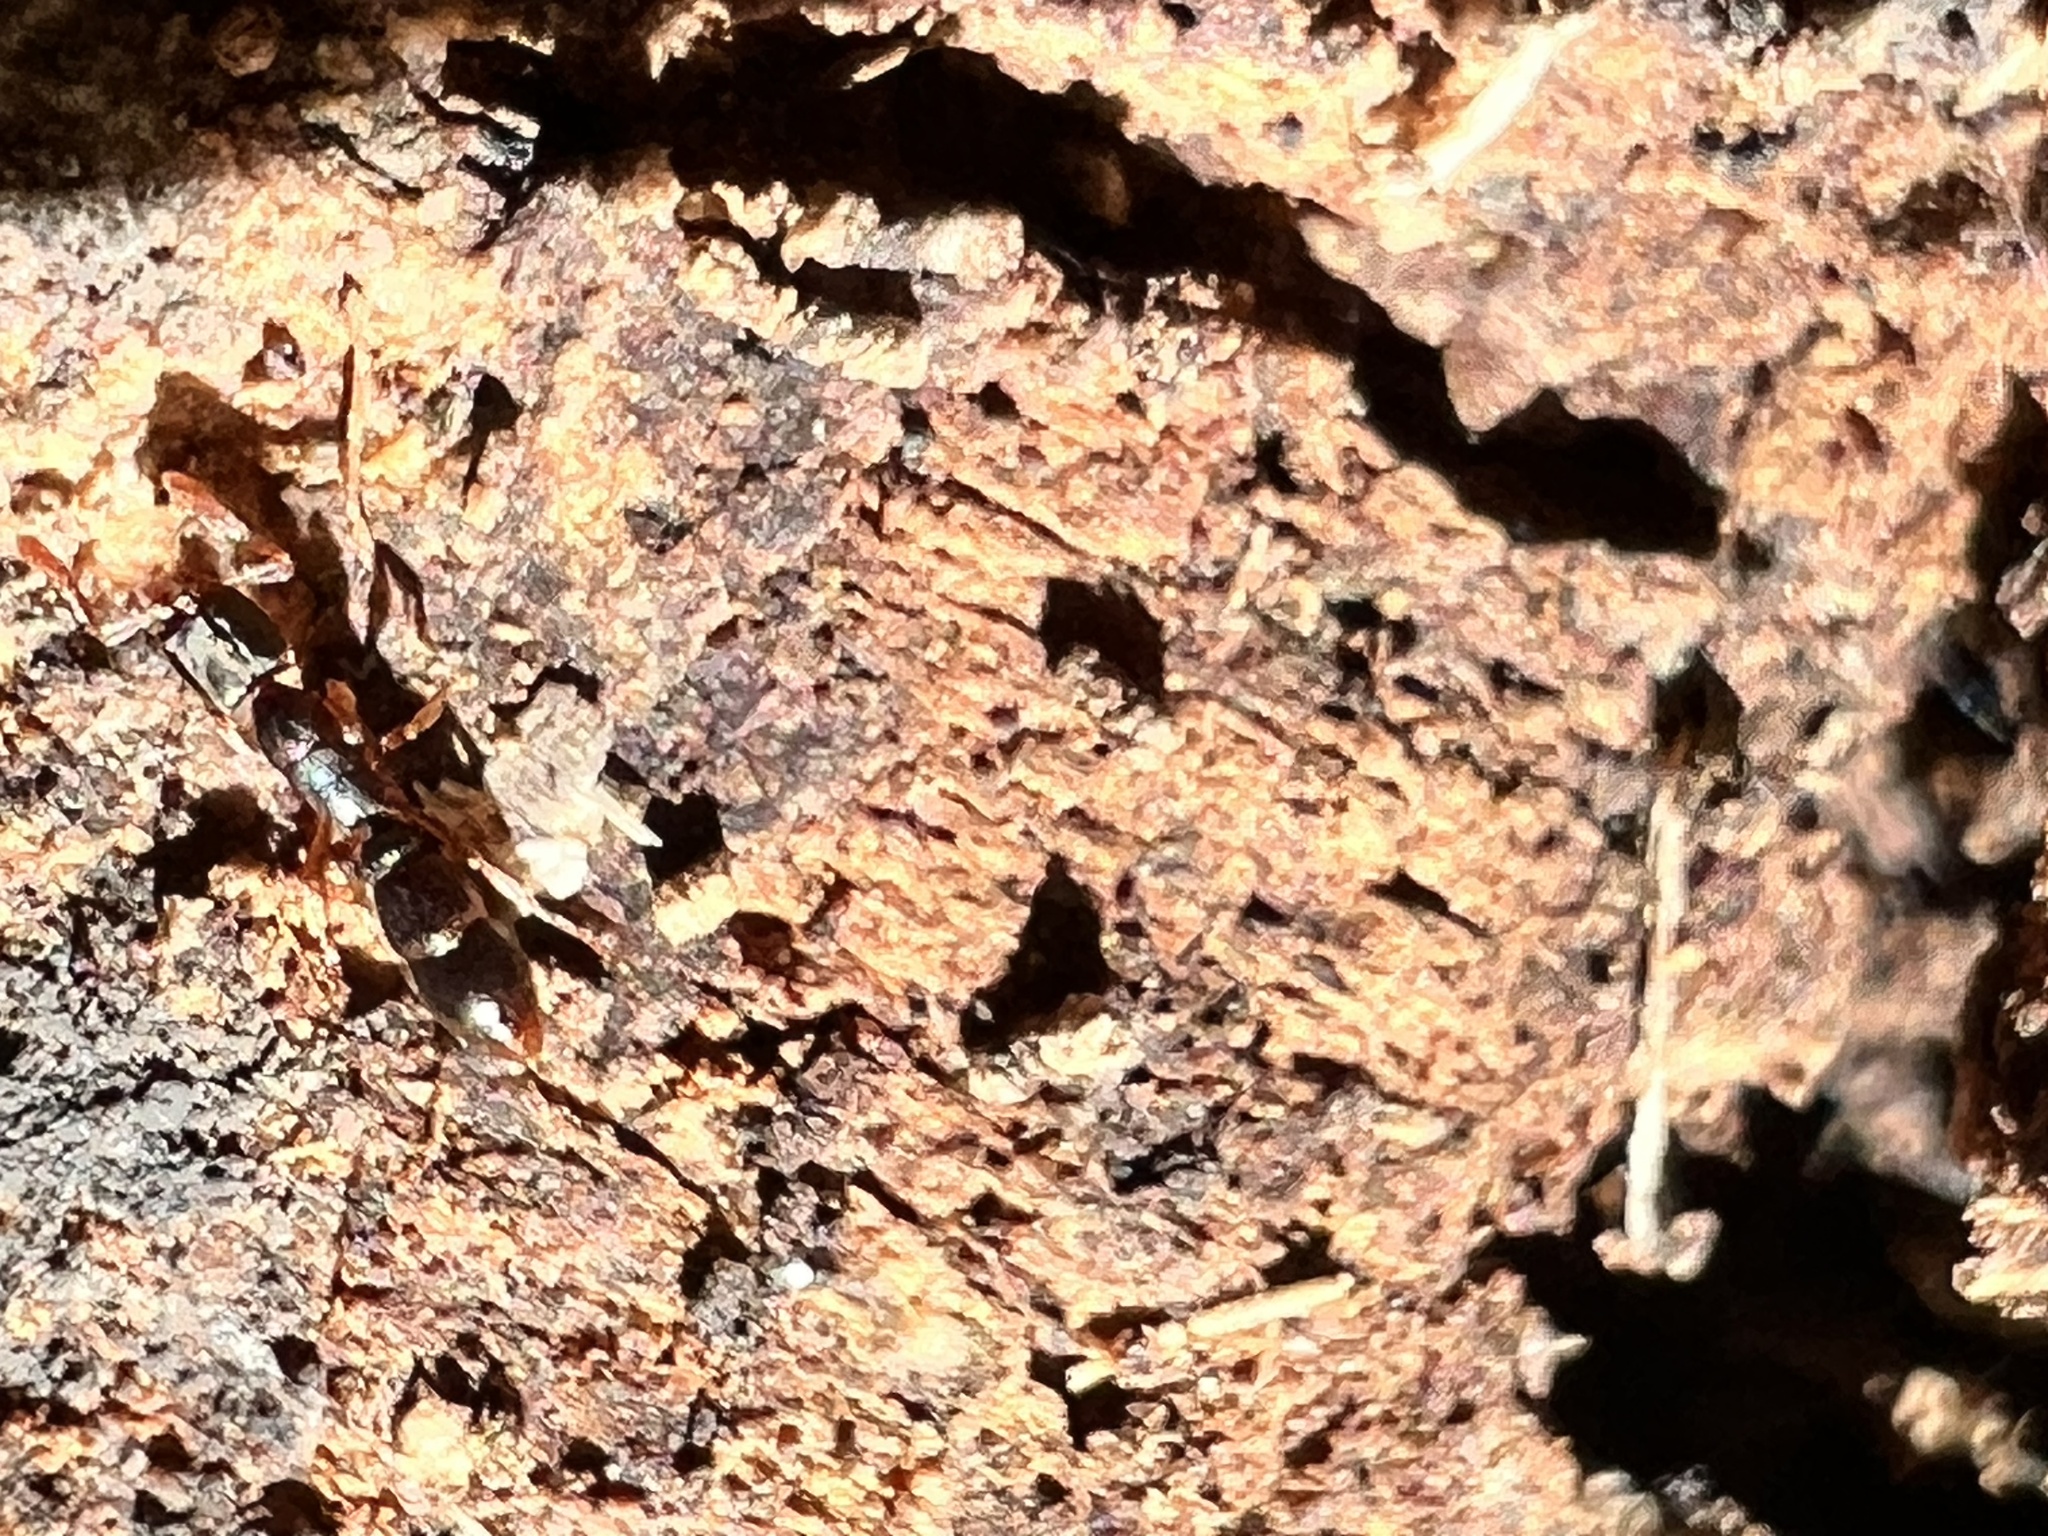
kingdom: Animalia
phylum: Arthropoda
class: Insecta
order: Hymenoptera
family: Formicidae
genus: Ponera
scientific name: Ponera pennsylvanica
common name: Pennsylvania ponera
